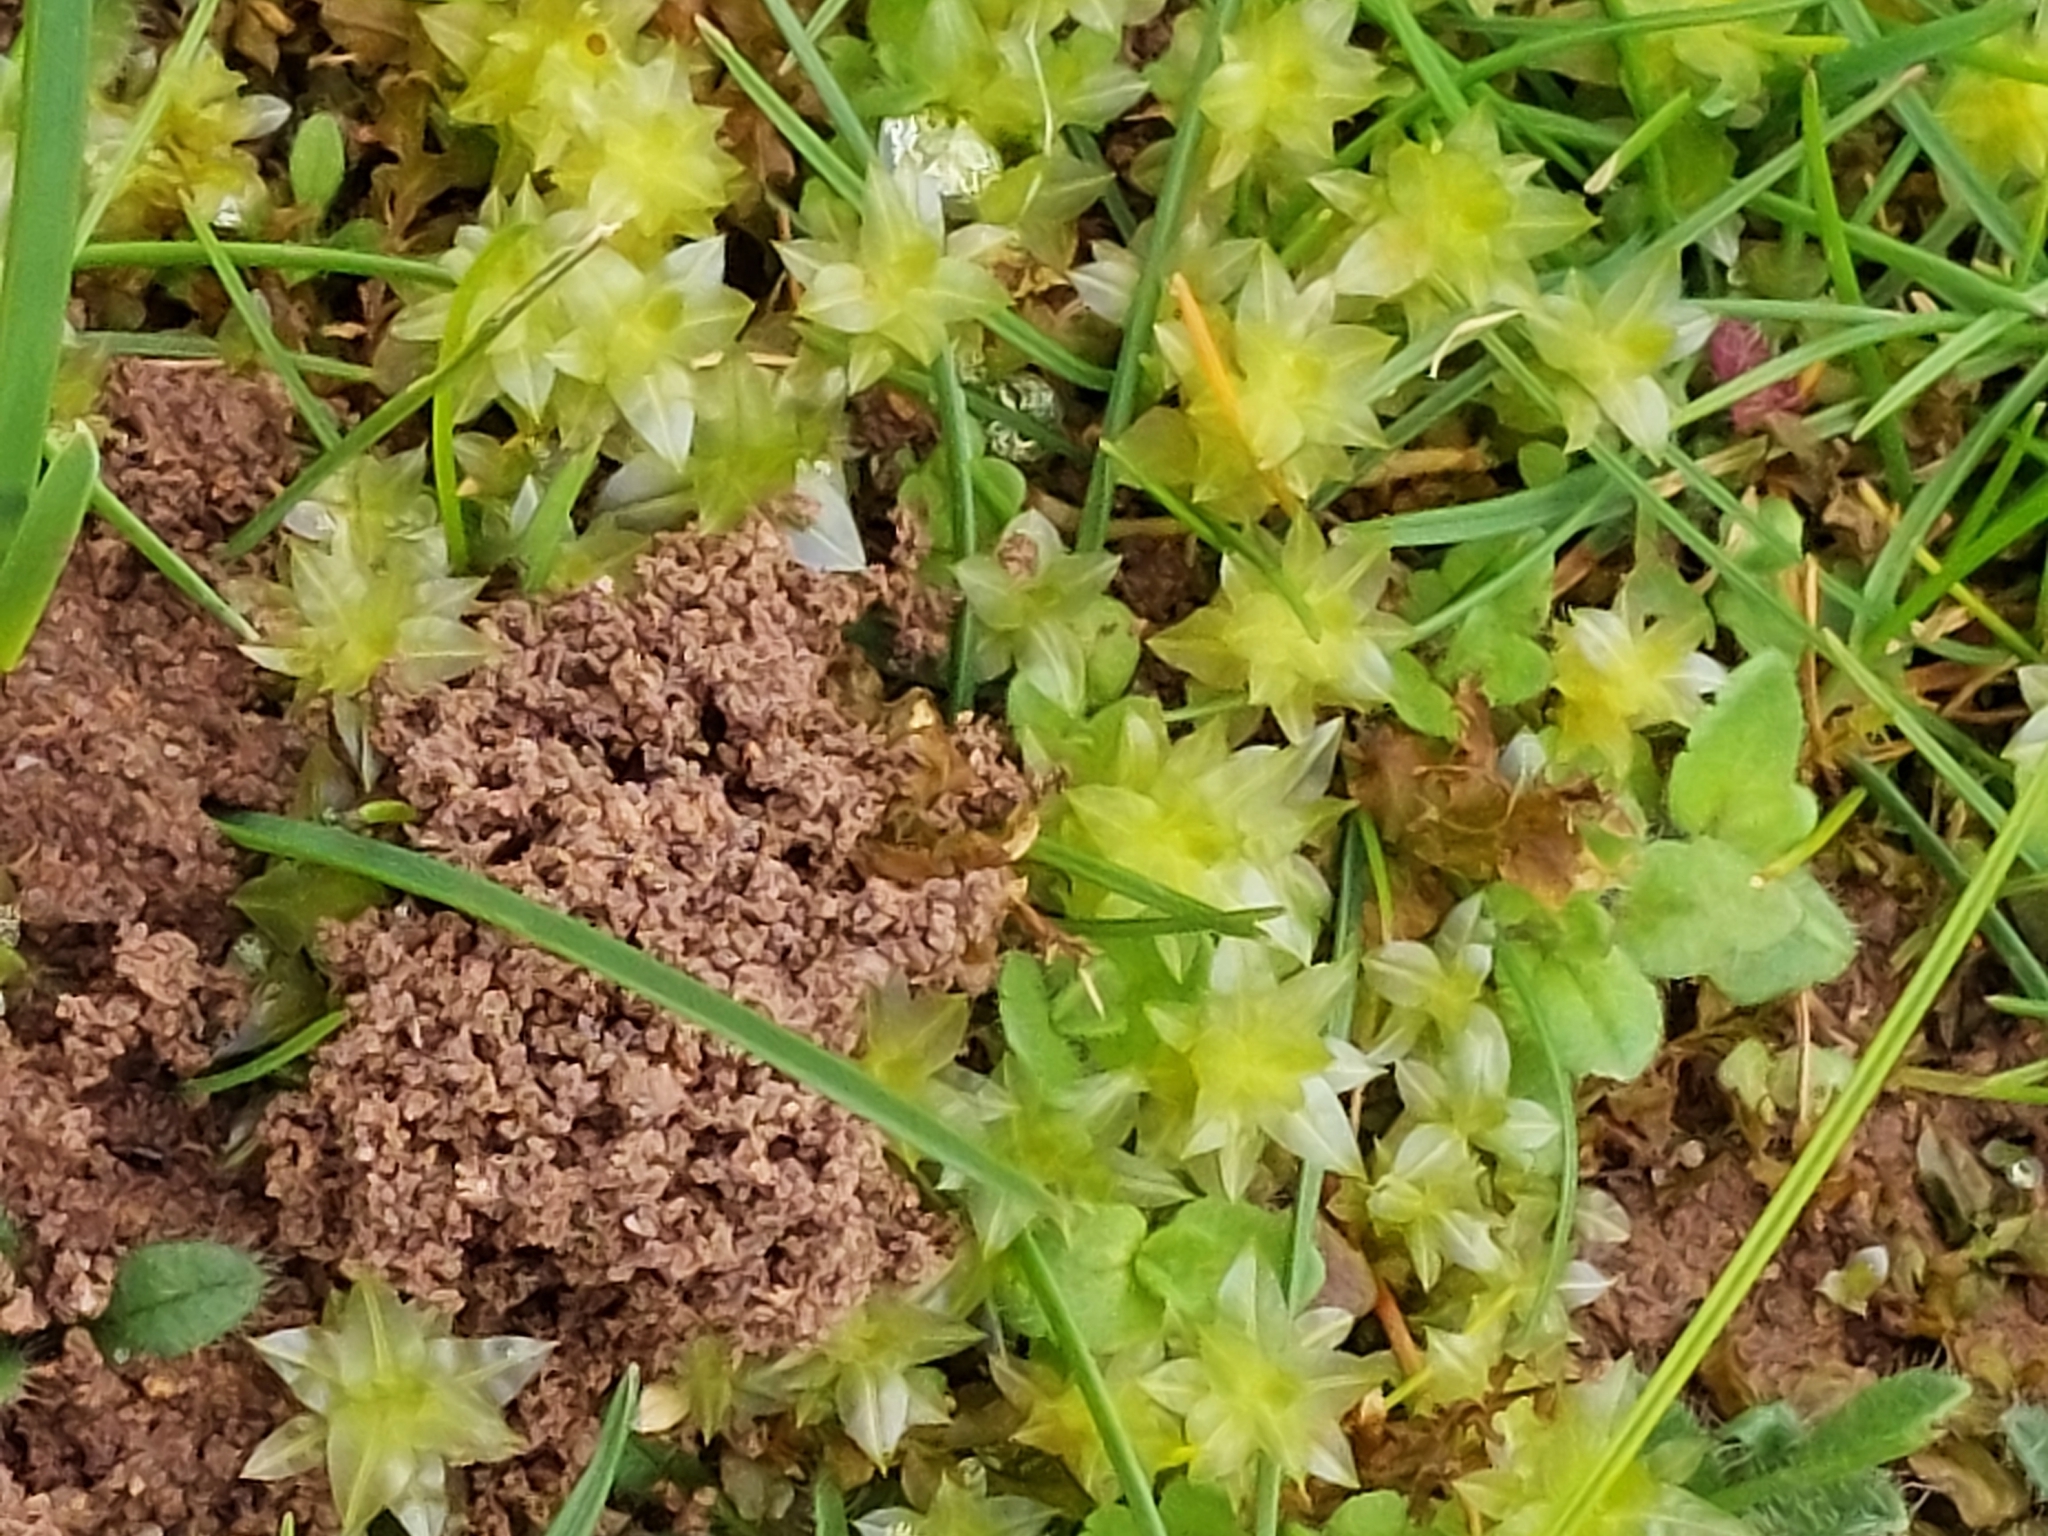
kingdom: Plantae
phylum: Bryophyta
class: Bryopsida
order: Bryales
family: Mniaceae
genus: Plagiomnium
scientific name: Plagiomnium undulatum
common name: Hart's-tongue thyme-moss
